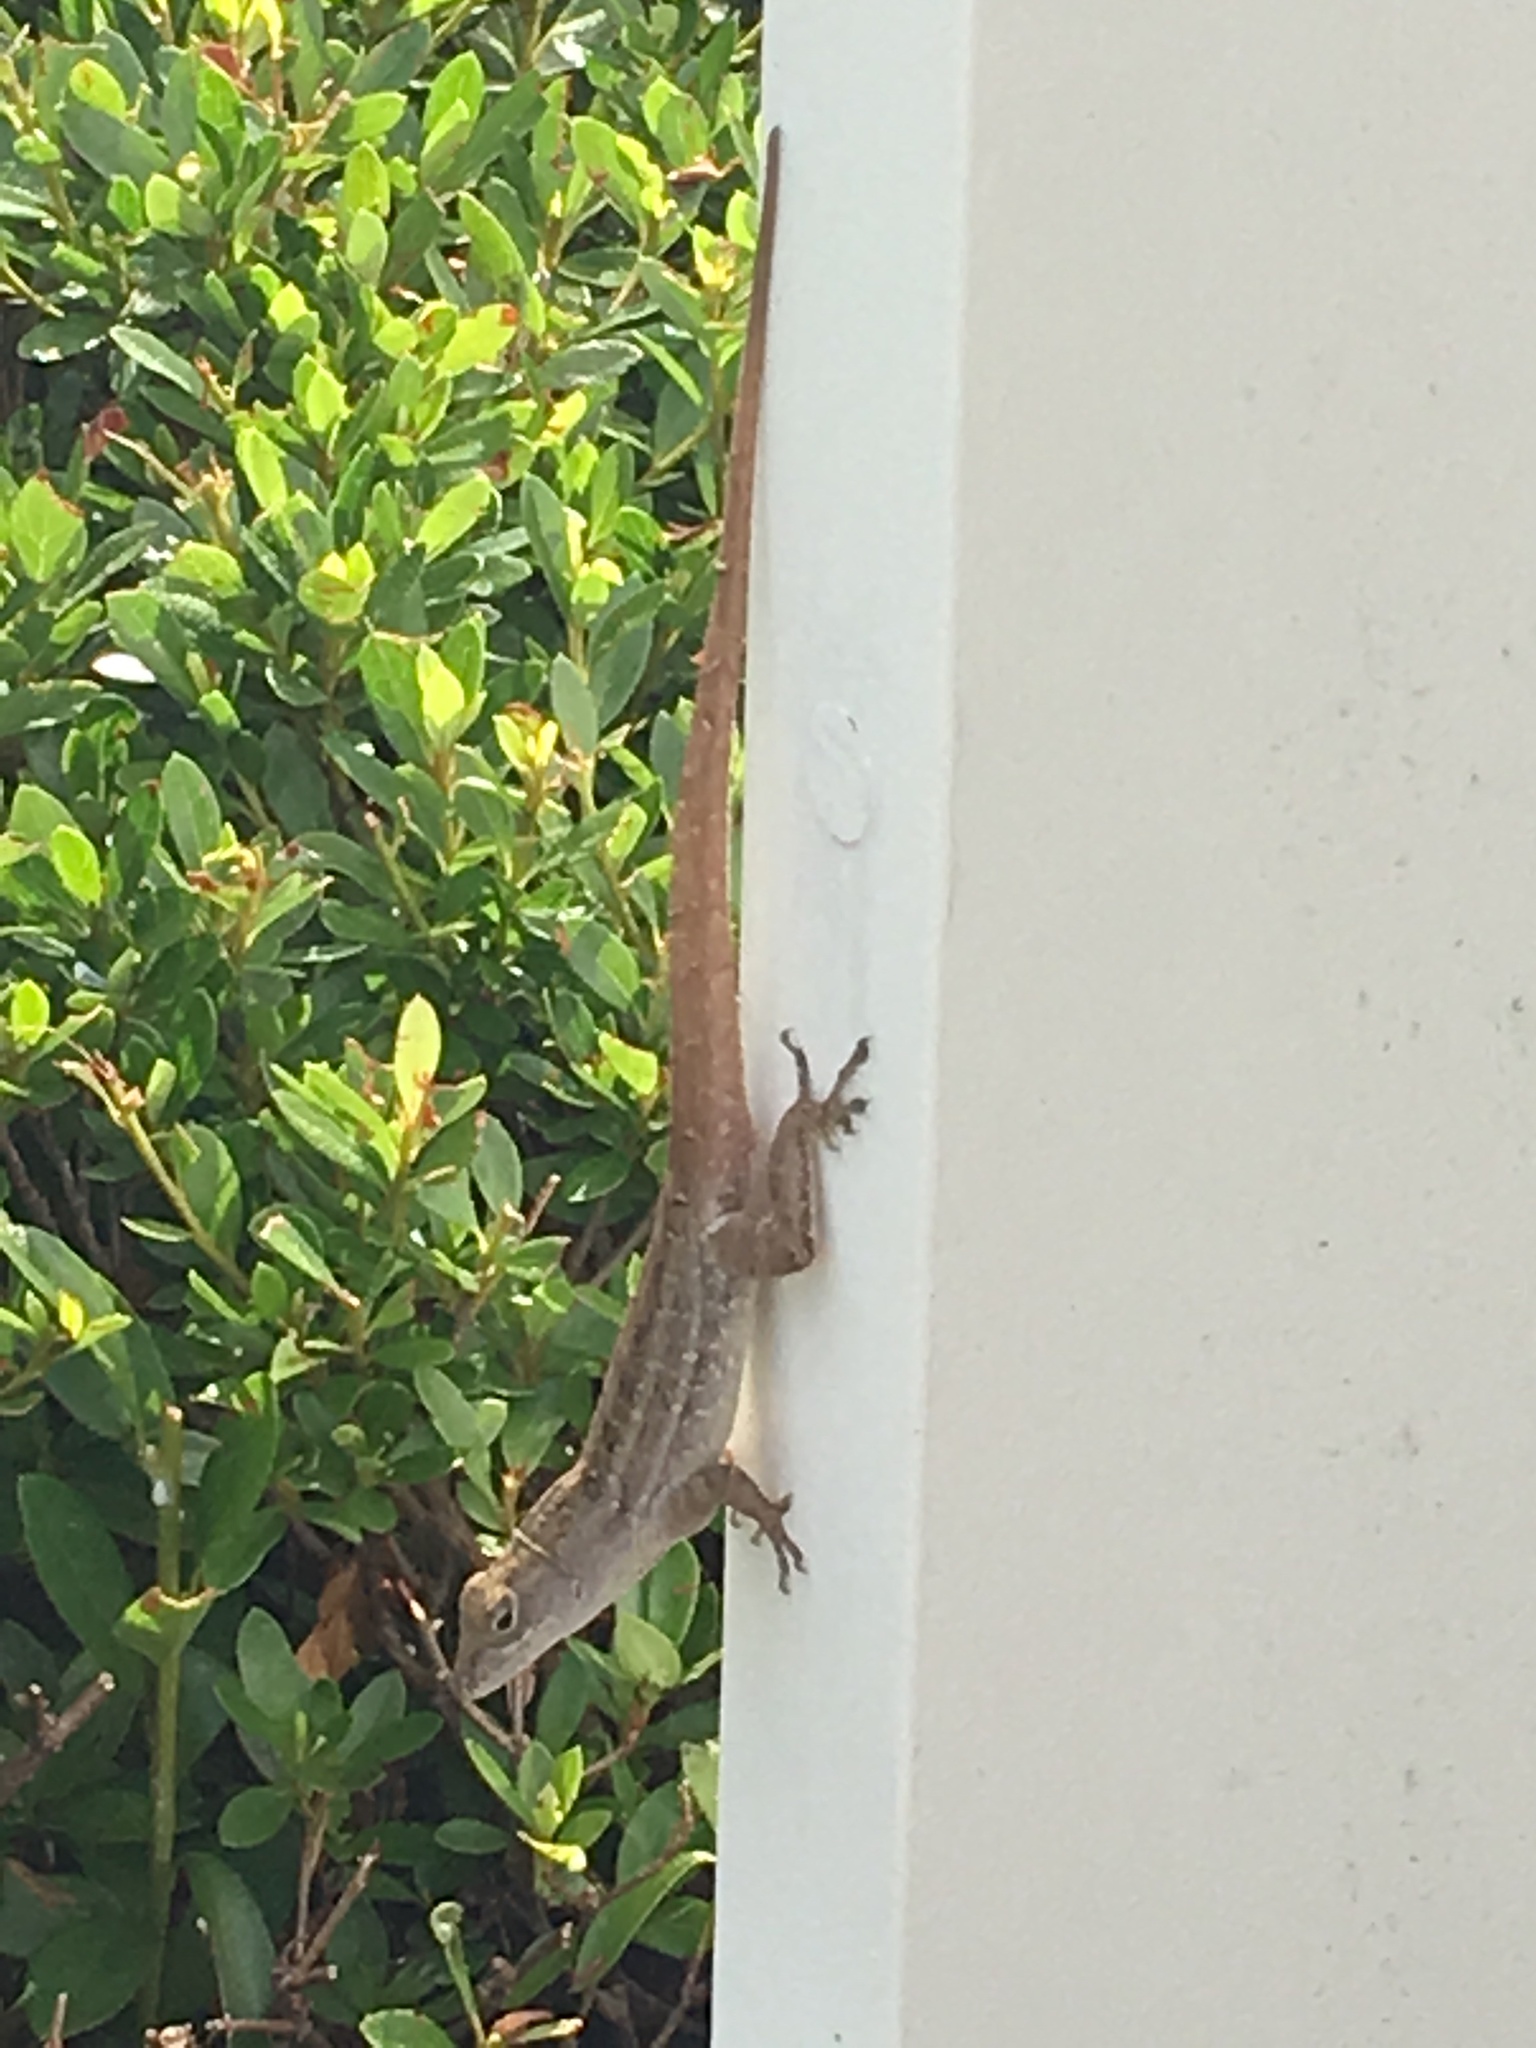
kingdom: Animalia
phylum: Chordata
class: Squamata
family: Dactyloidae
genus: Anolis
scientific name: Anolis sagrei
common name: Brown anole
